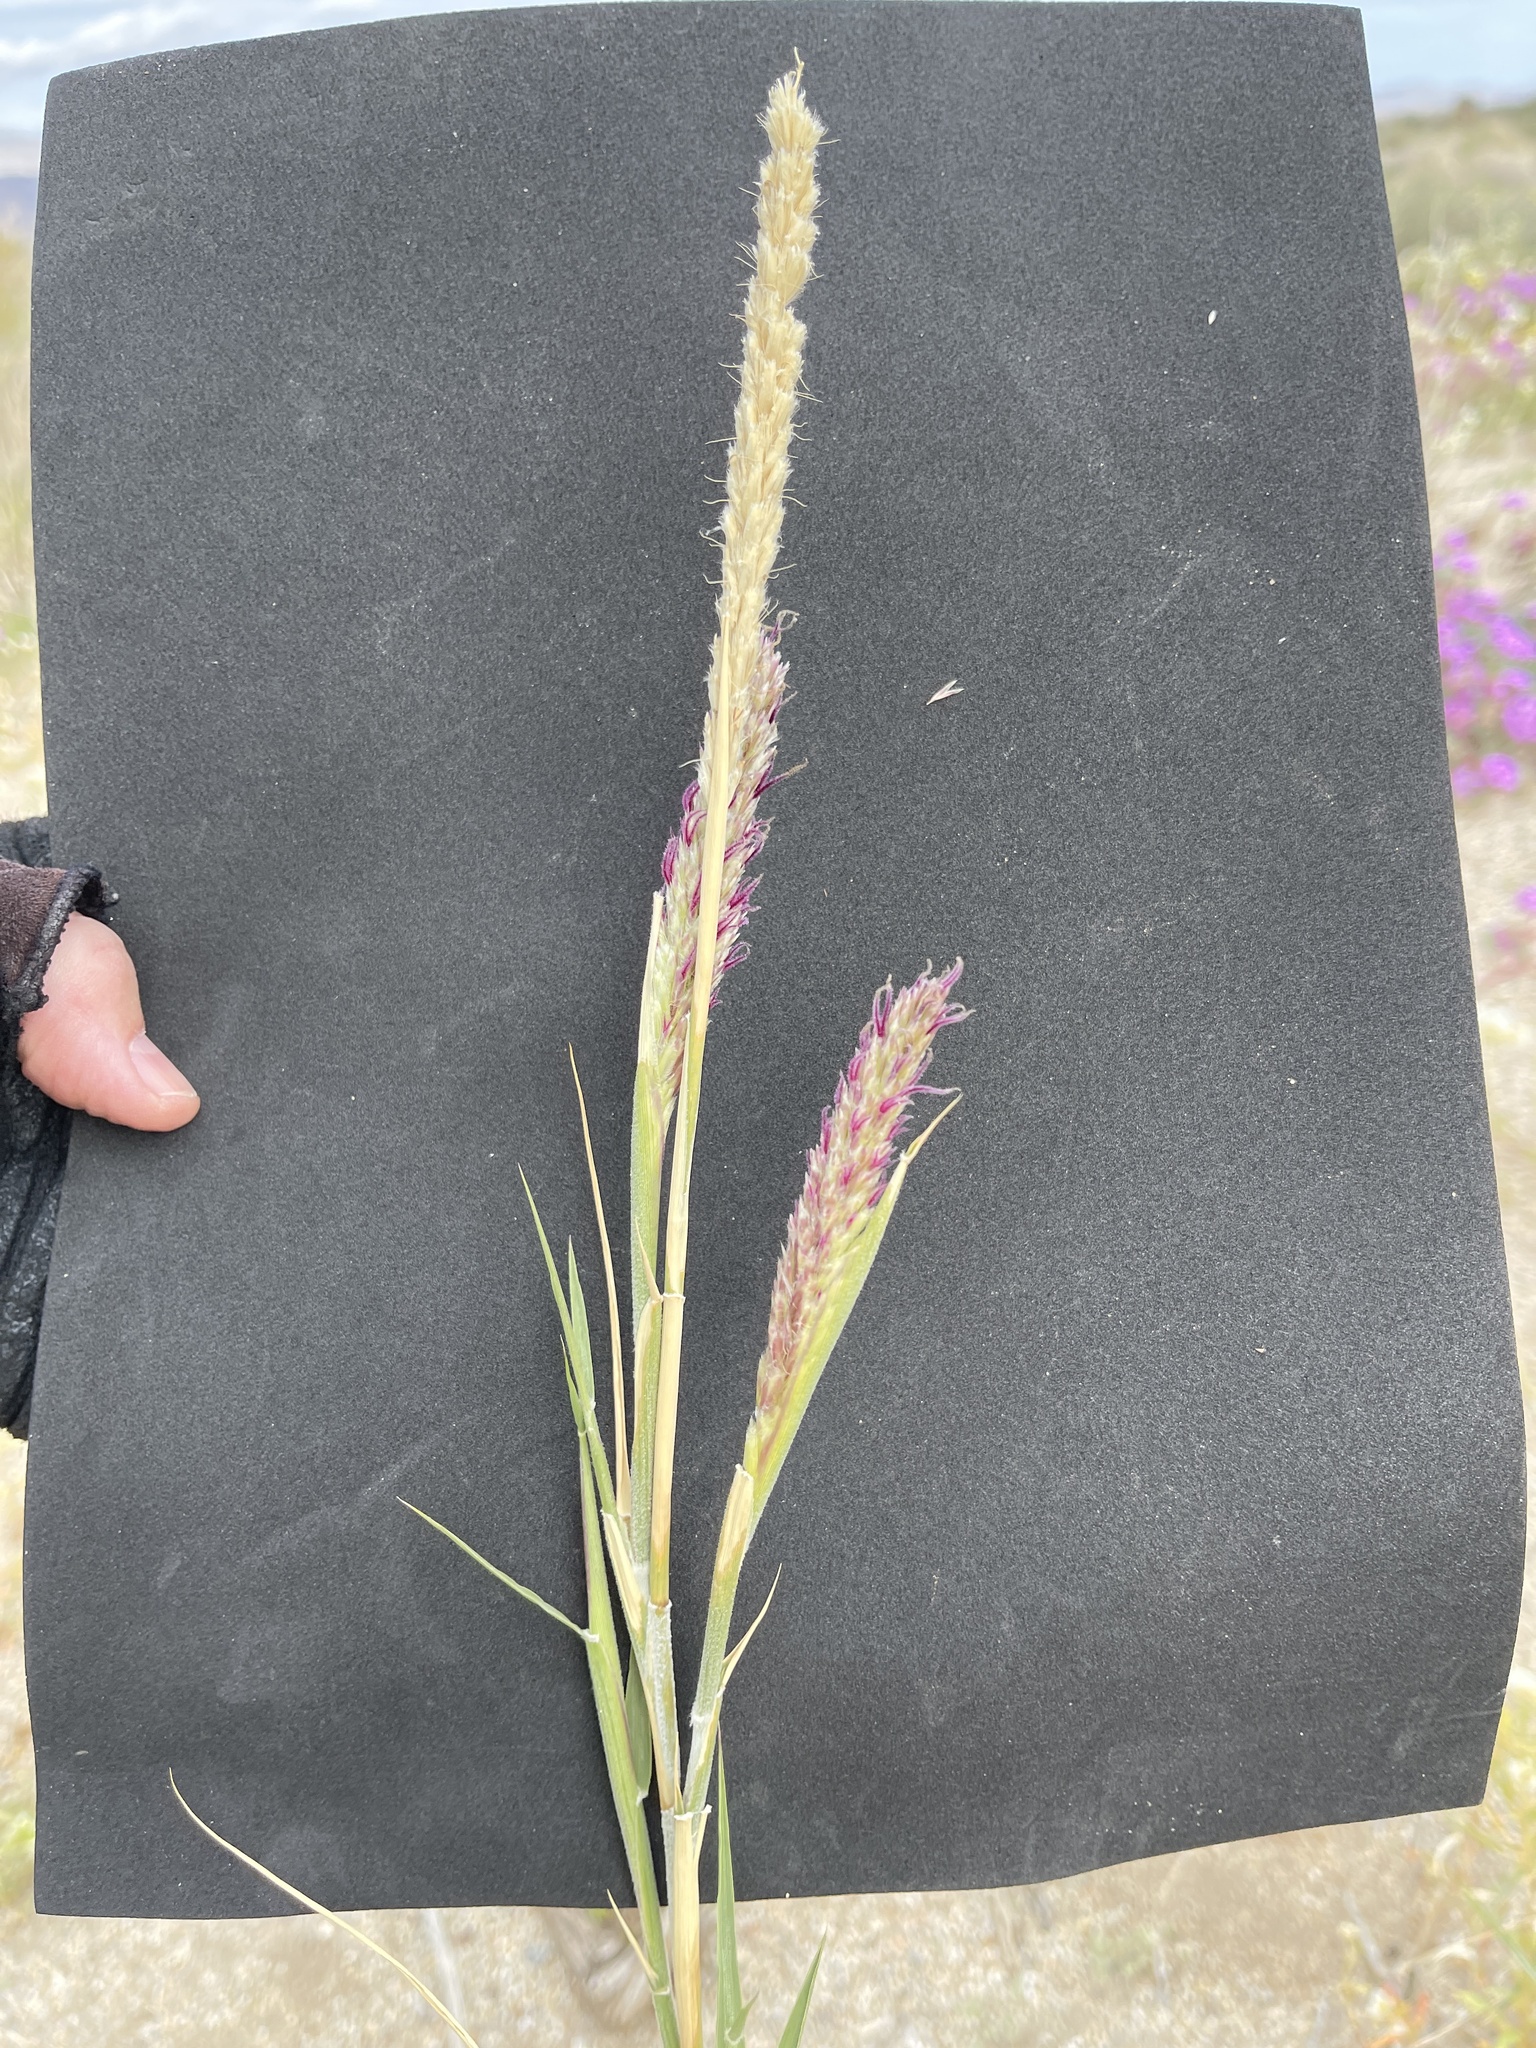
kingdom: Plantae
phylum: Tracheophyta
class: Liliopsida
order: Poales
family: Poaceae
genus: Hilaria
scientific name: Hilaria rigida
